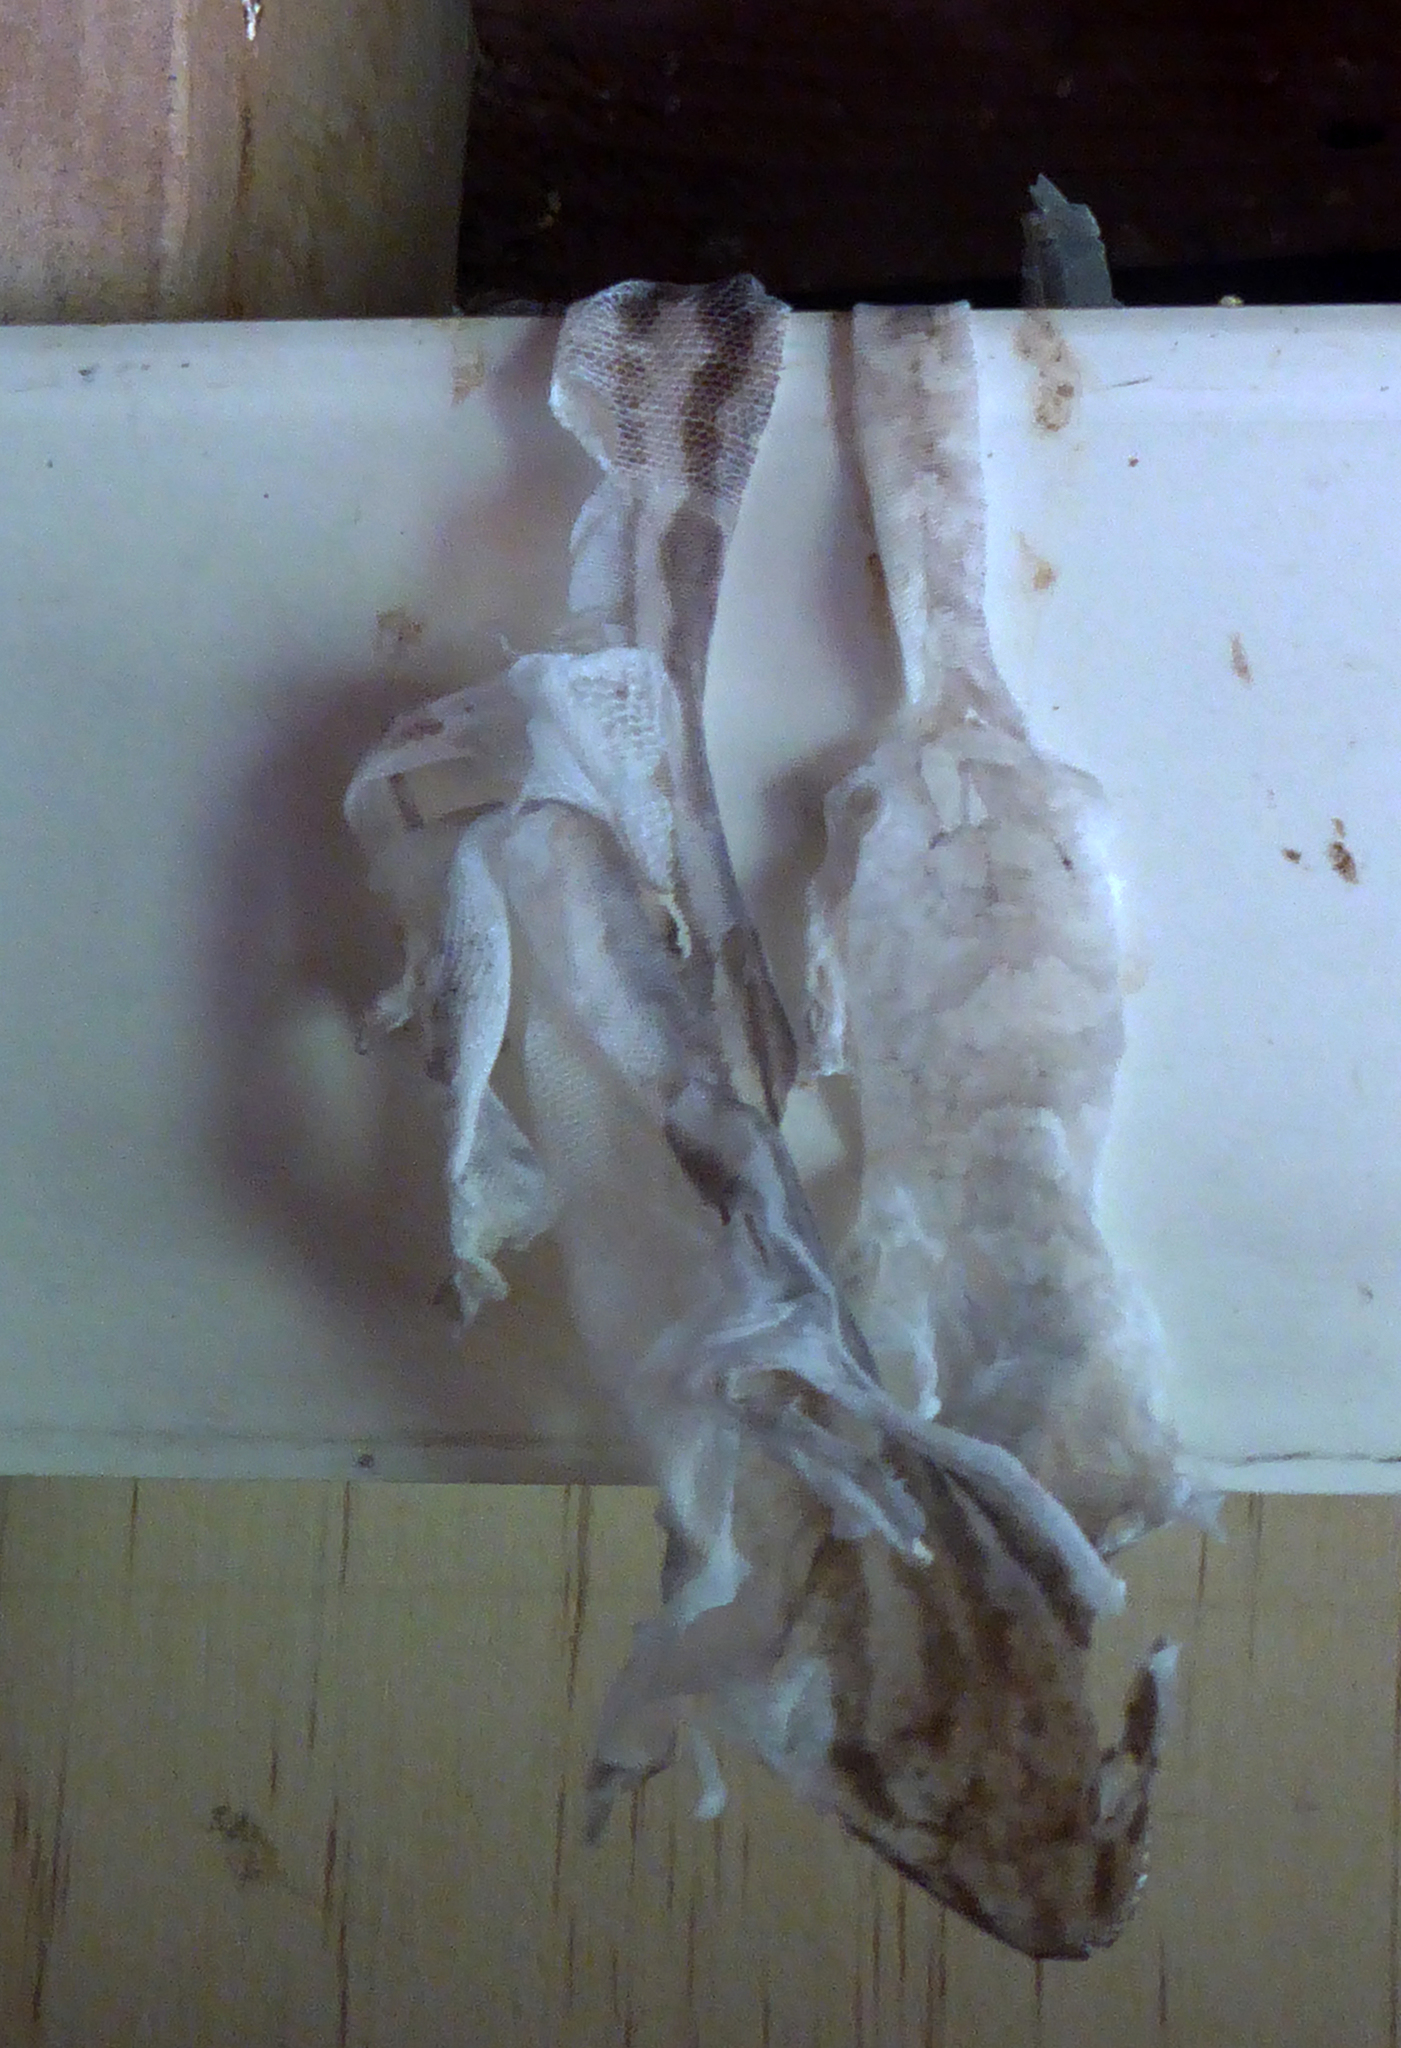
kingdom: Animalia
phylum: Chordata
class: Squamata
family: Diplodactylidae
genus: Woodworthia
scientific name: Woodworthia maculata
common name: Raukawa gecko
